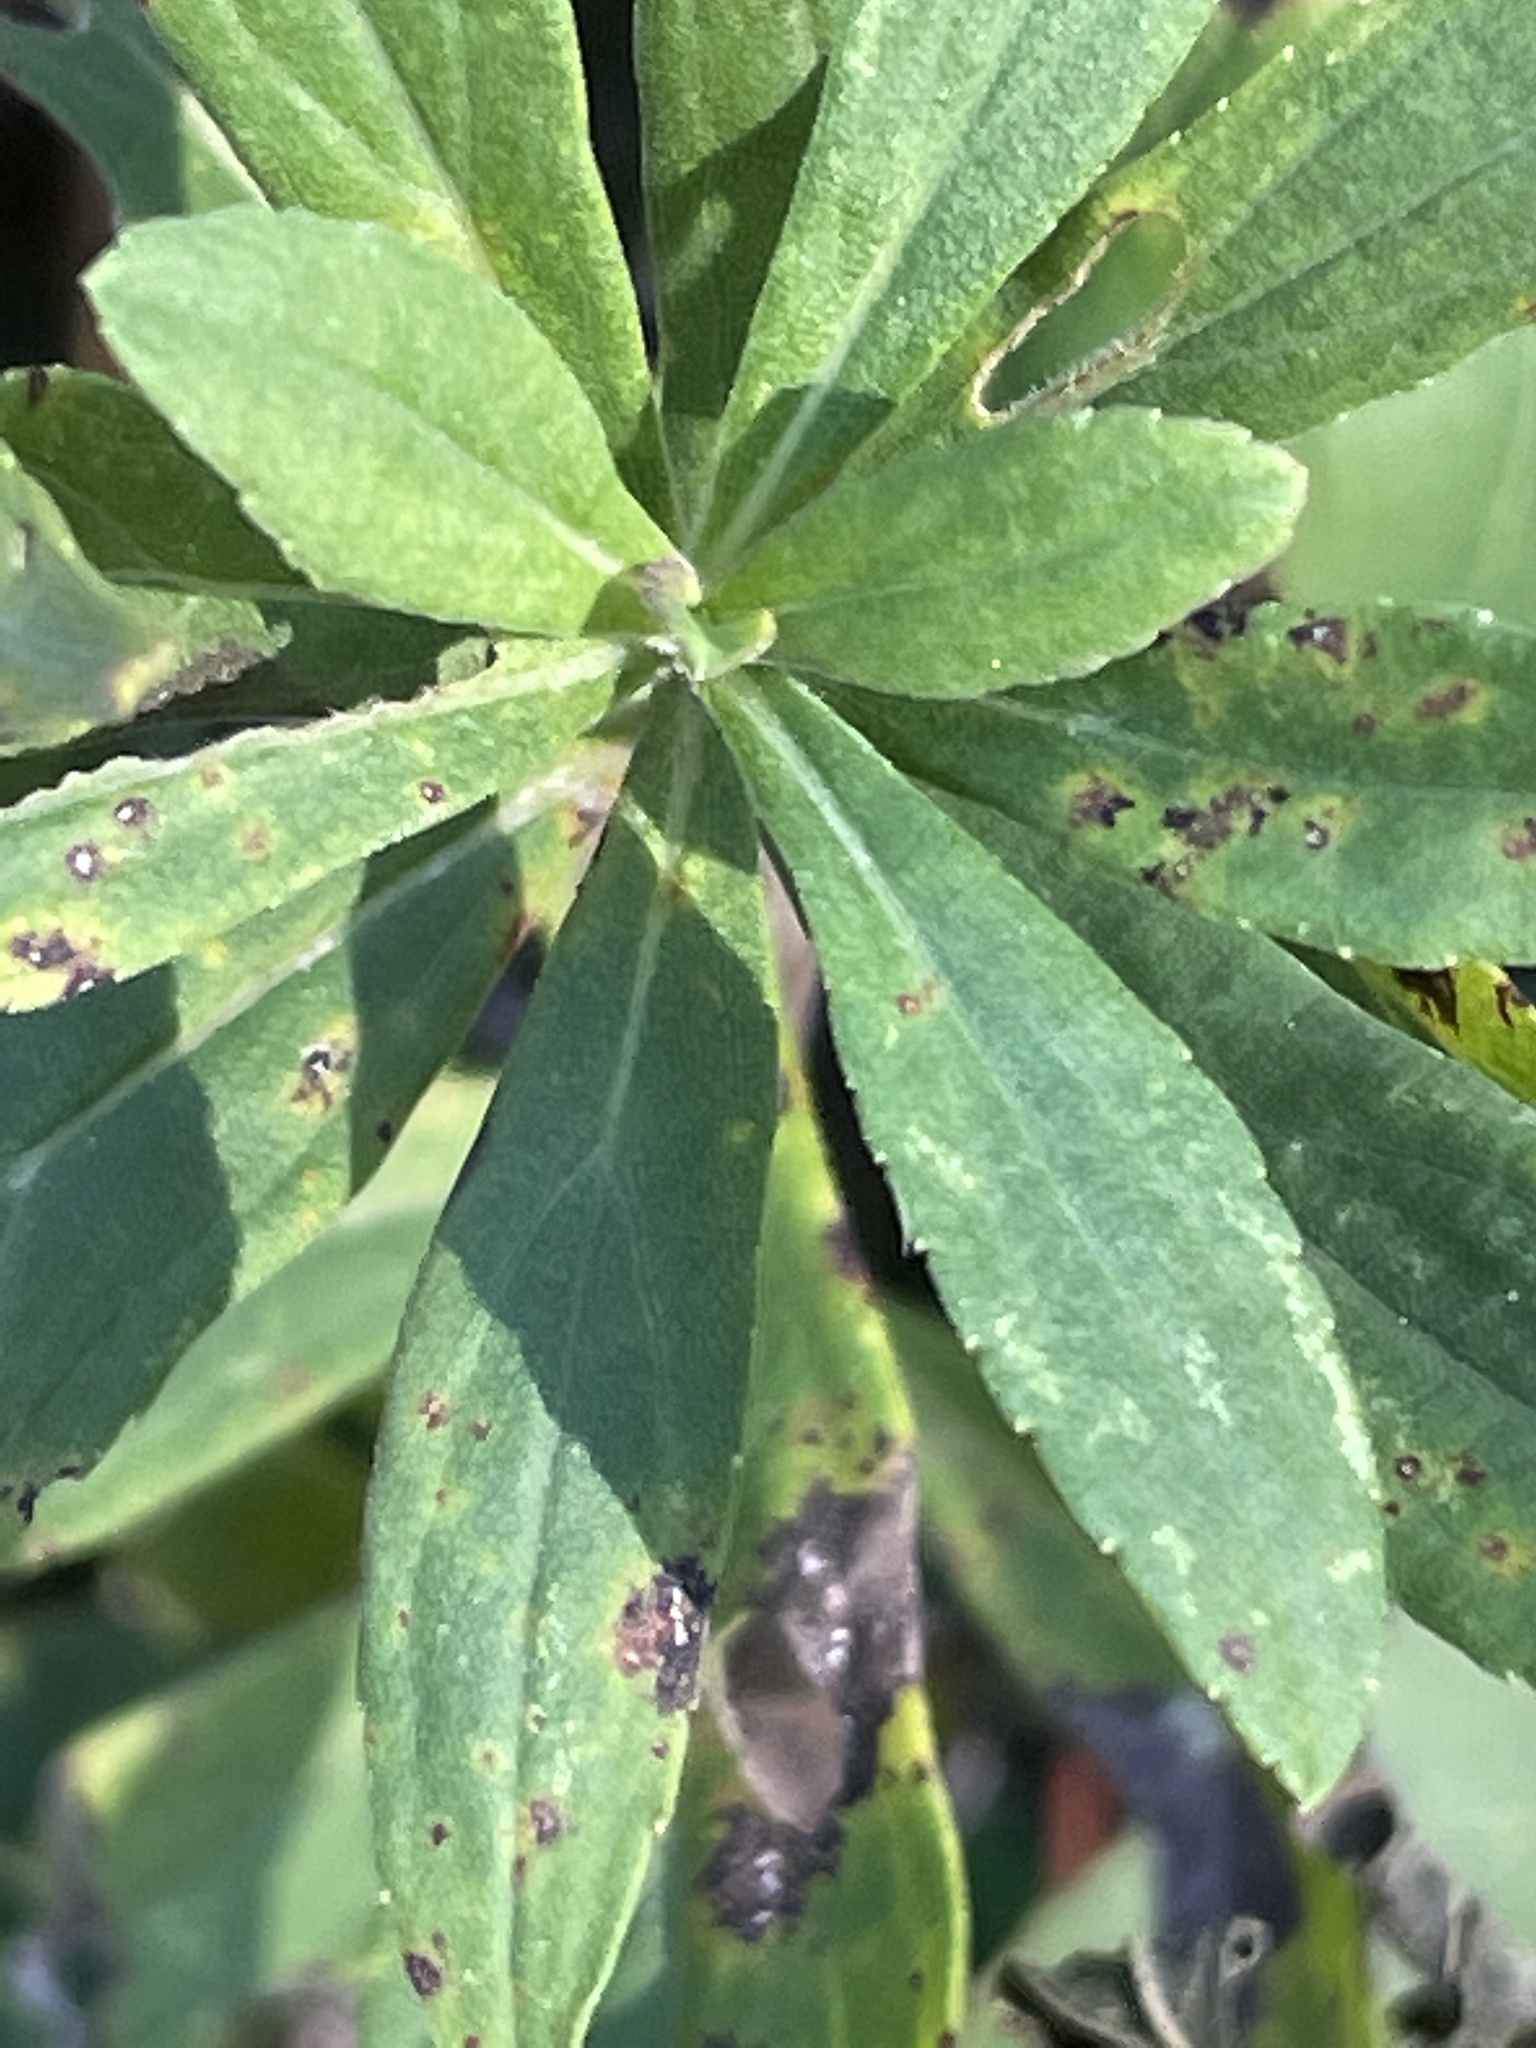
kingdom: Plantae
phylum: Tracheophyta
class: Magnoliopsida
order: Asterales
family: Asteraceae
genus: Solidago
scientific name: Solidago altissima
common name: Late goldenrod
